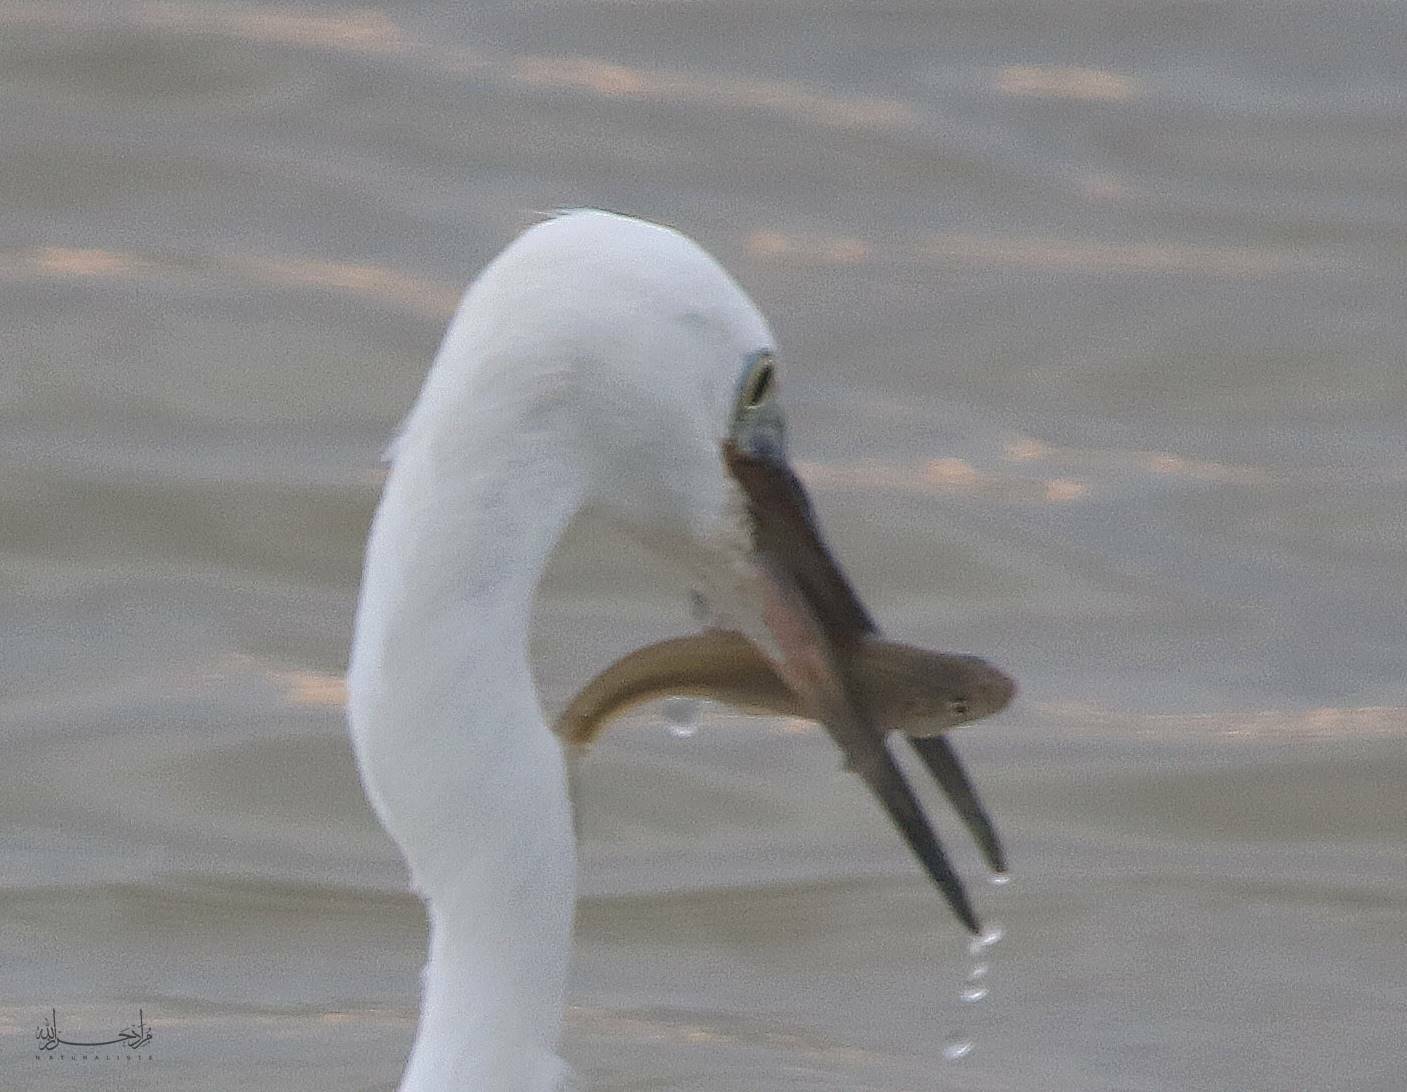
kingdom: Animalia
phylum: Chordata
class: Aves
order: Pelecaniformes
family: Ardeidae
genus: Egretta
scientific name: Egretta garzetta
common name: Little egret
